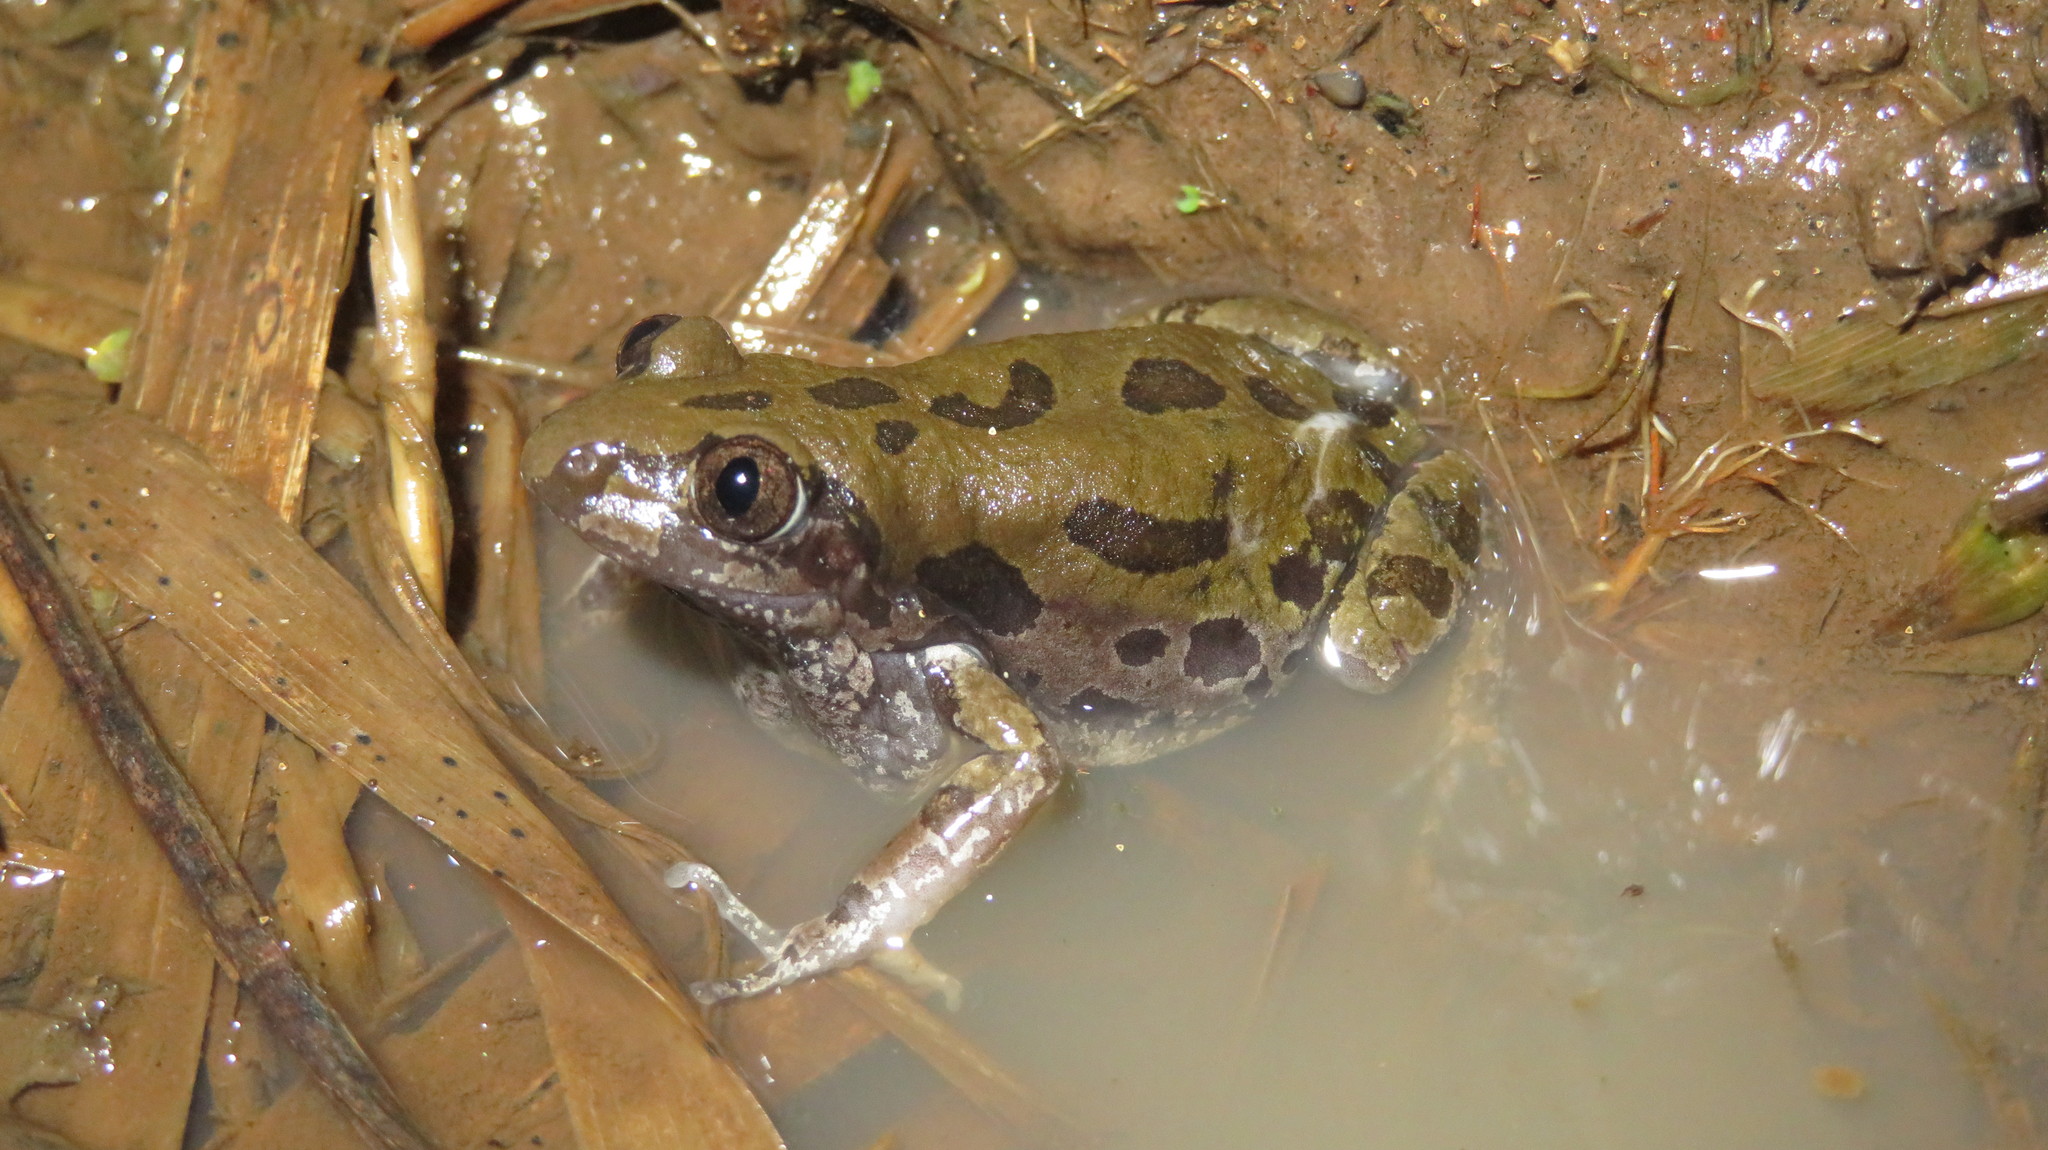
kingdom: Animalia
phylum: Chordata
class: Amphibia
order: Anura
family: Hyperoliidae
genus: Kassina
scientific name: Kassina senegalensis
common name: Senegal land frog
